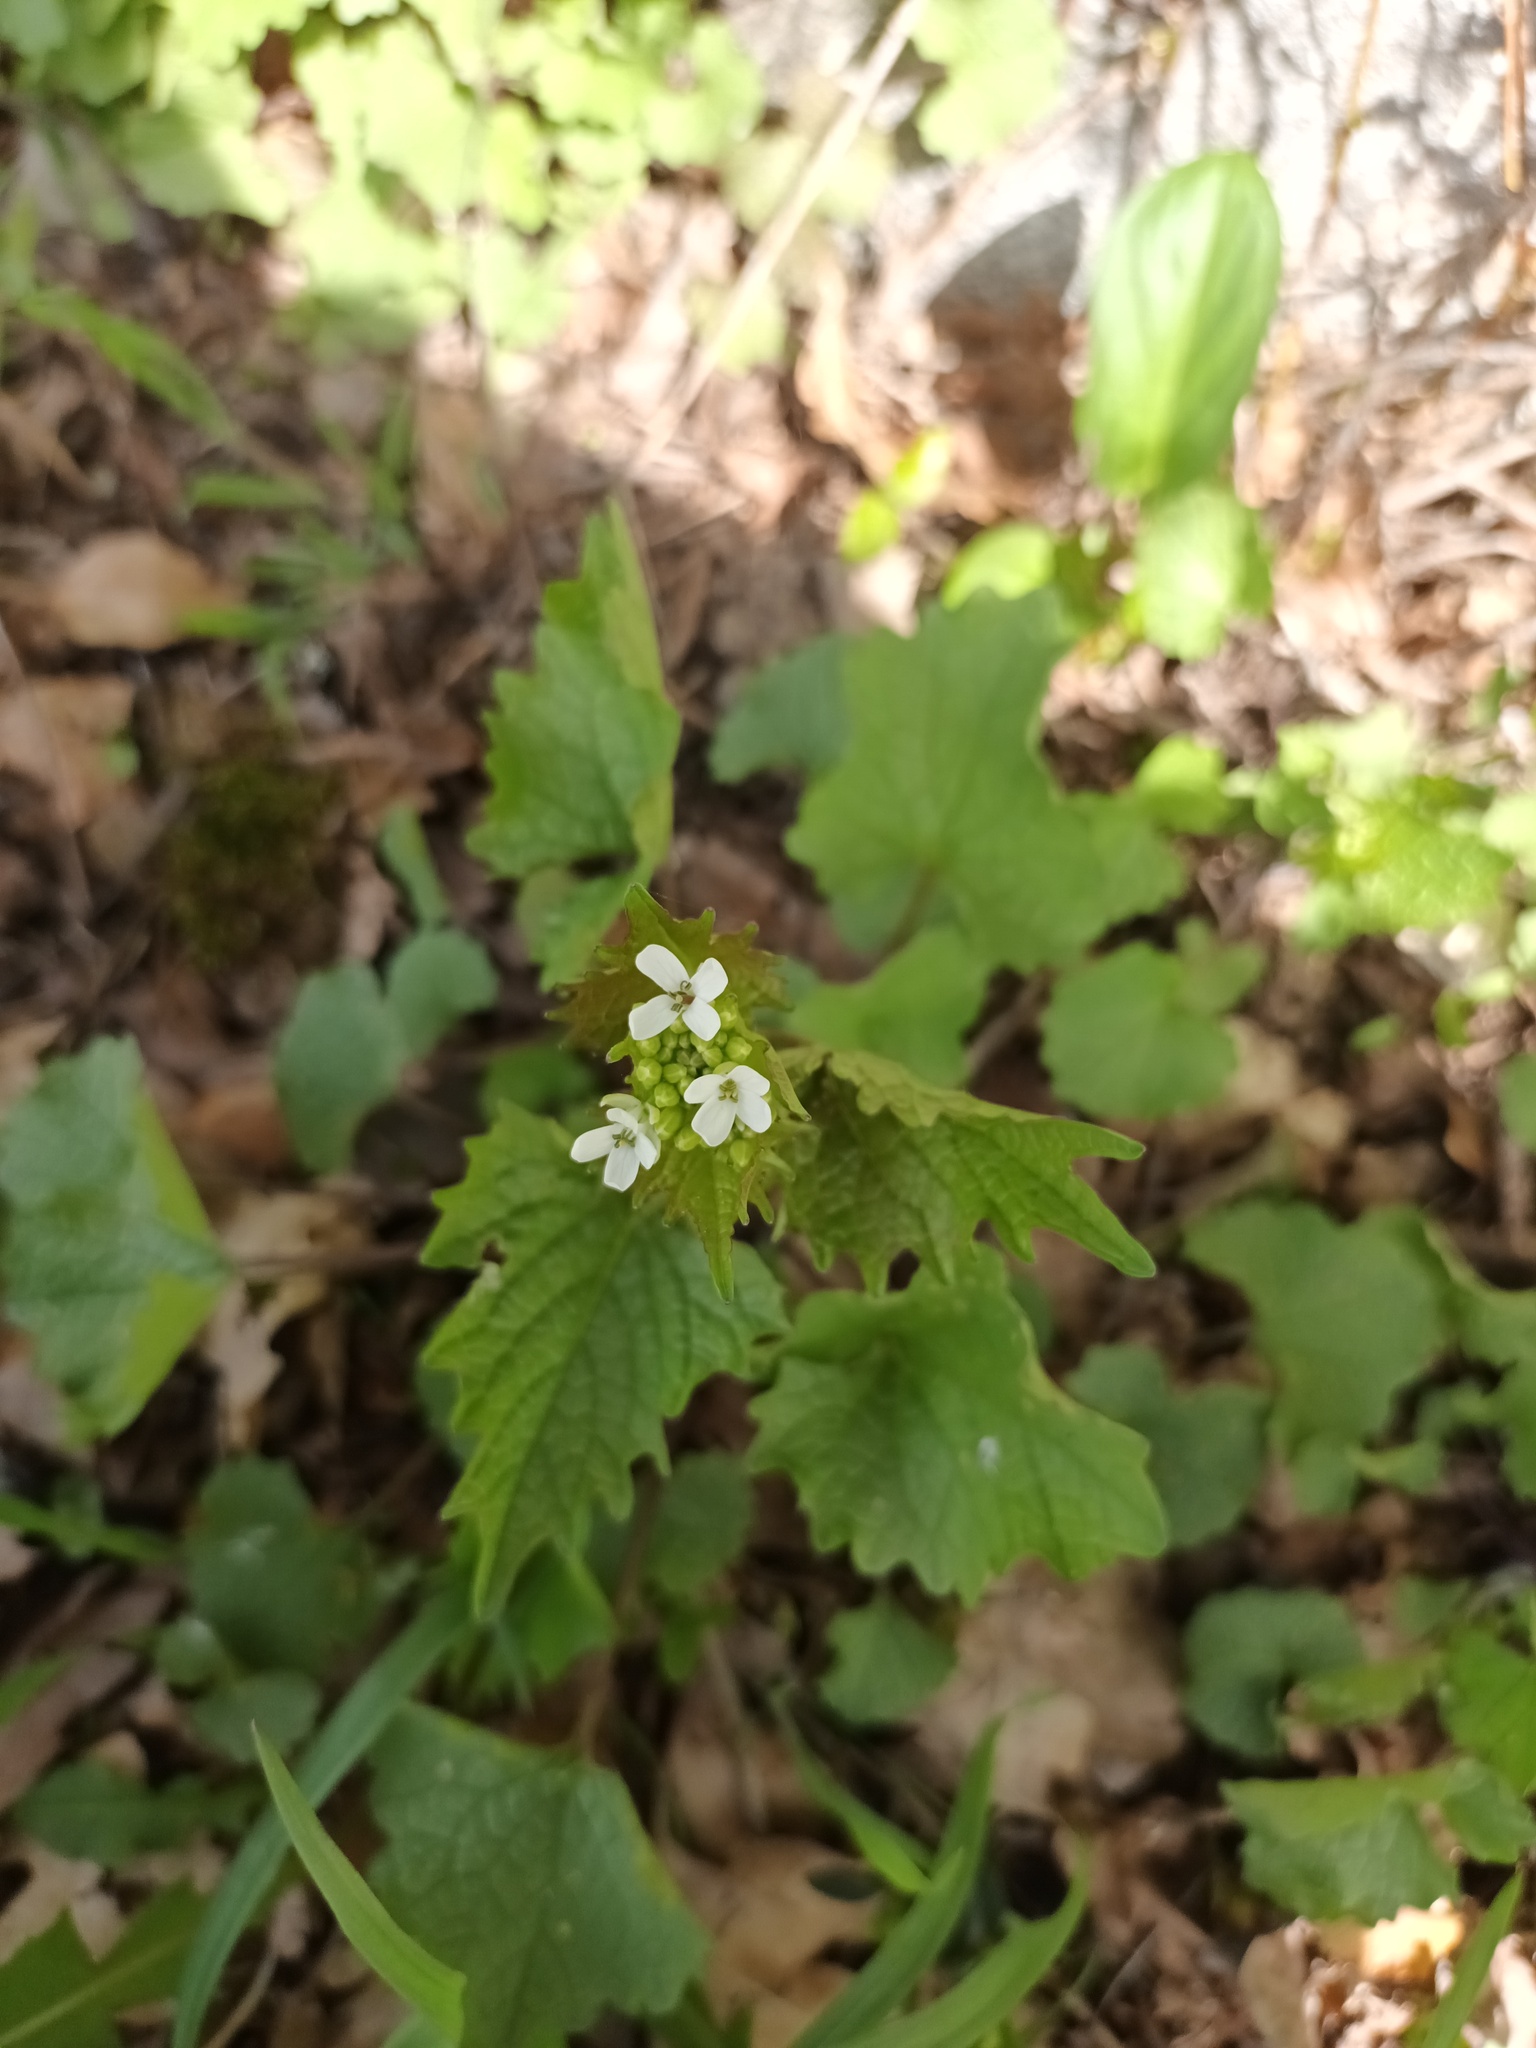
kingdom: Plantae
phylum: Tracheophyta
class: Magnoliopsida
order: Brassicales
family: Brassicaceae
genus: Alliaria
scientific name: Alliaria petiolata
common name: Garlic mustard
